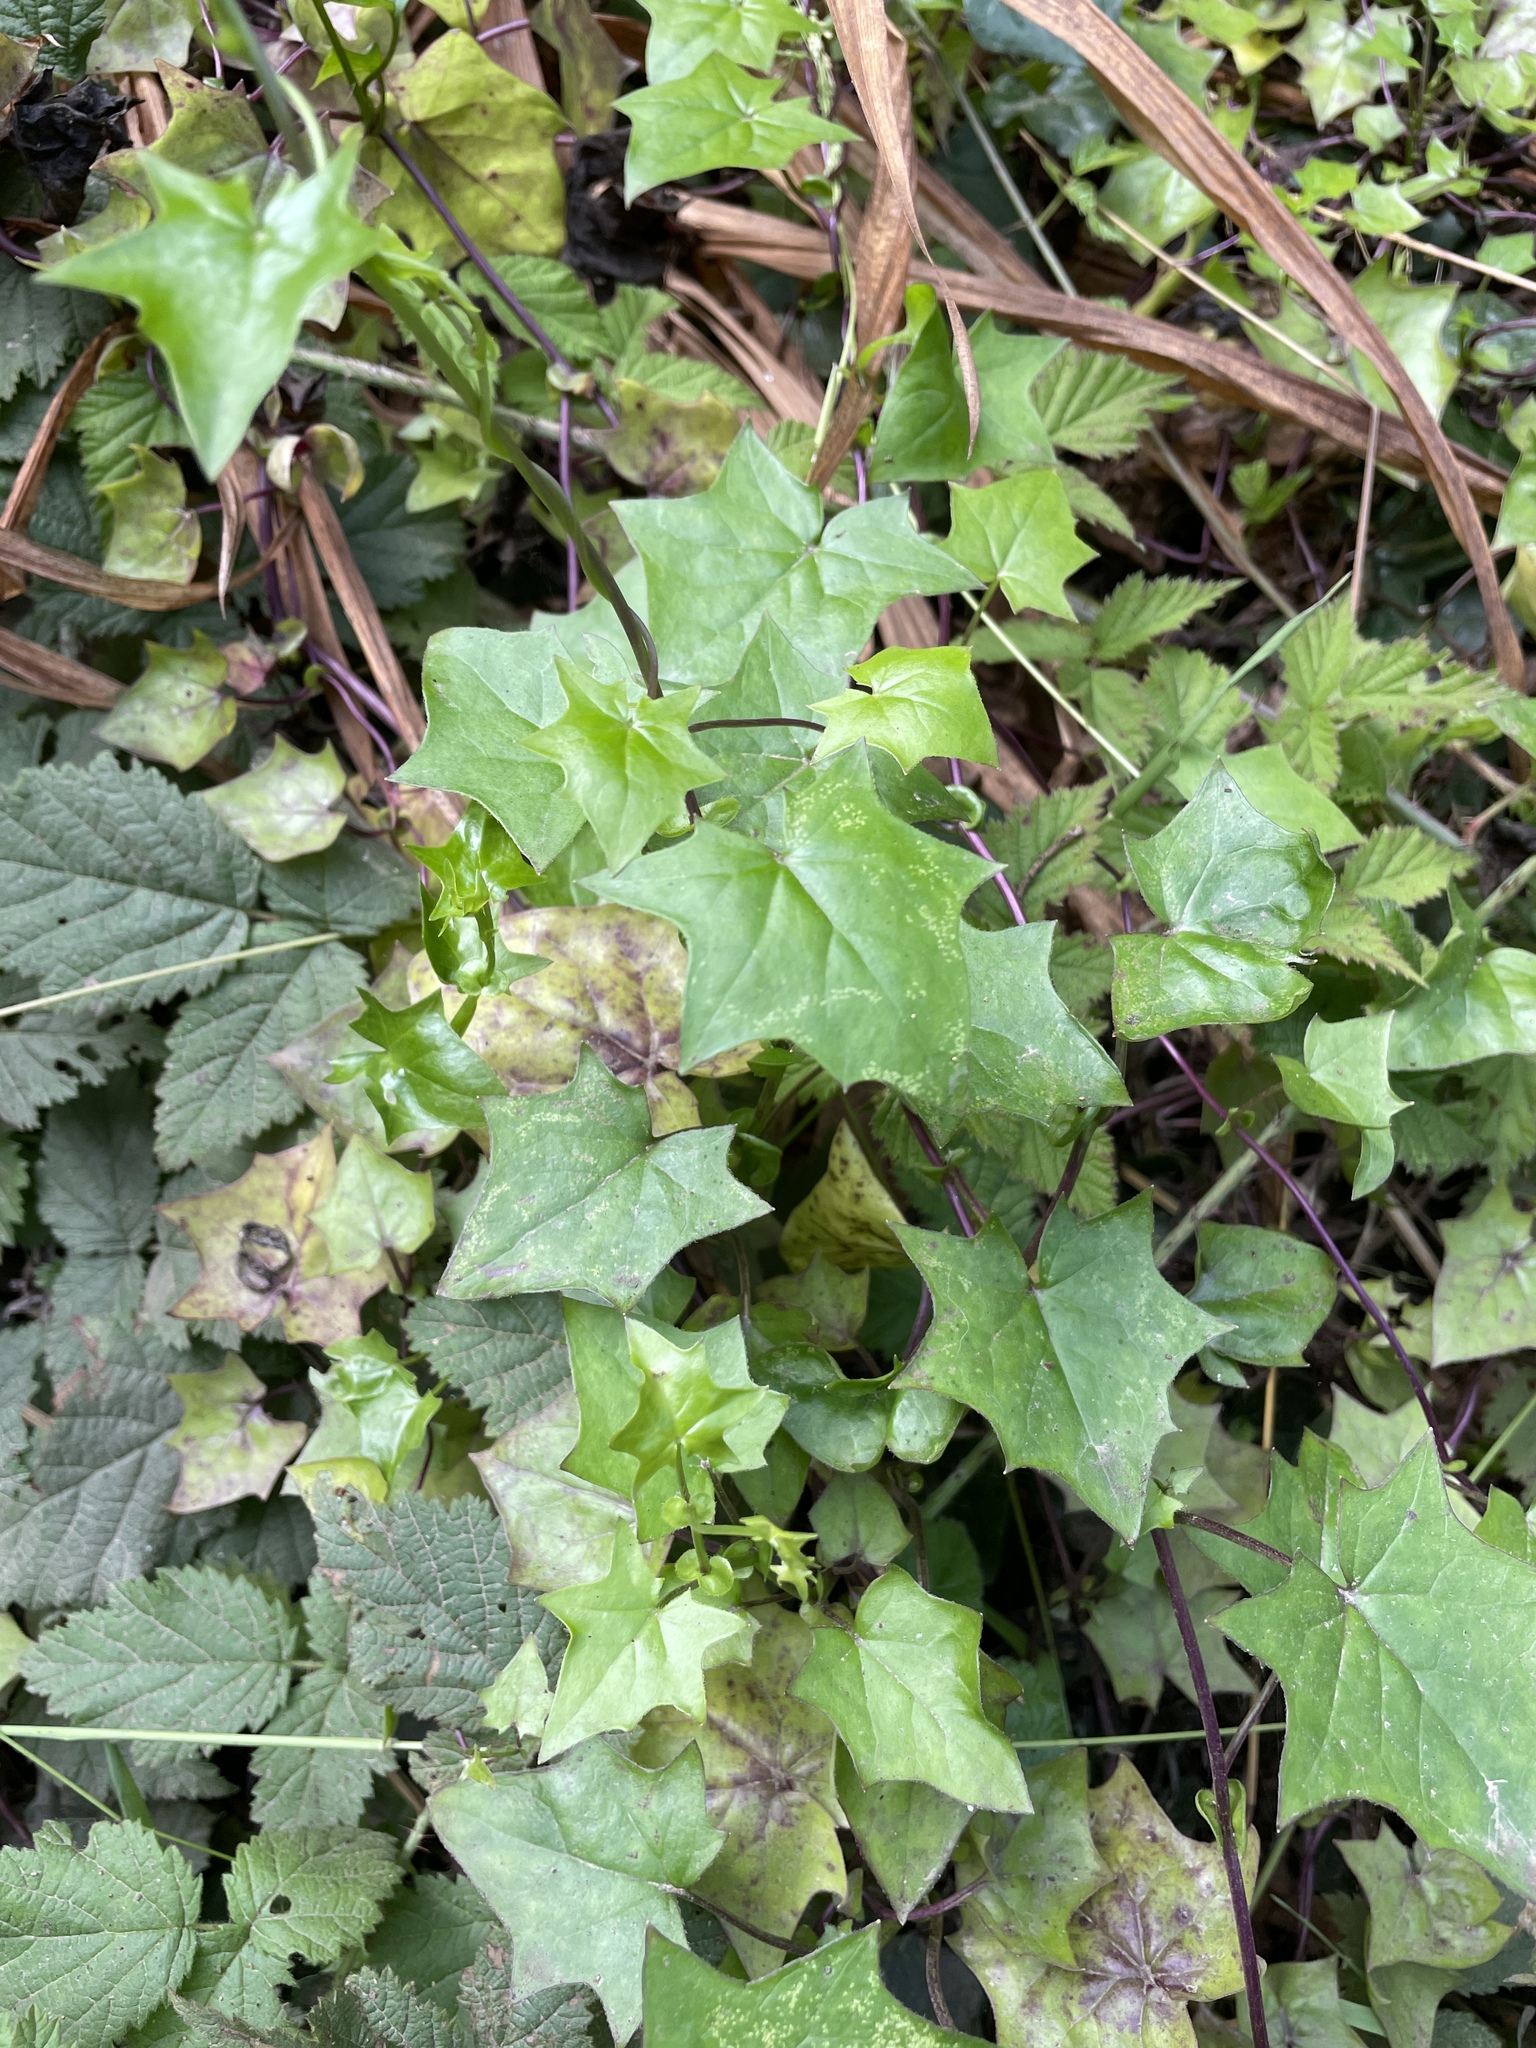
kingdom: Plantae
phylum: Tracheophyta
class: Magnoliopsida
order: Asterales
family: Asteraceae
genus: Delairea
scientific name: Delairea odorata
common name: Cape-ivy
